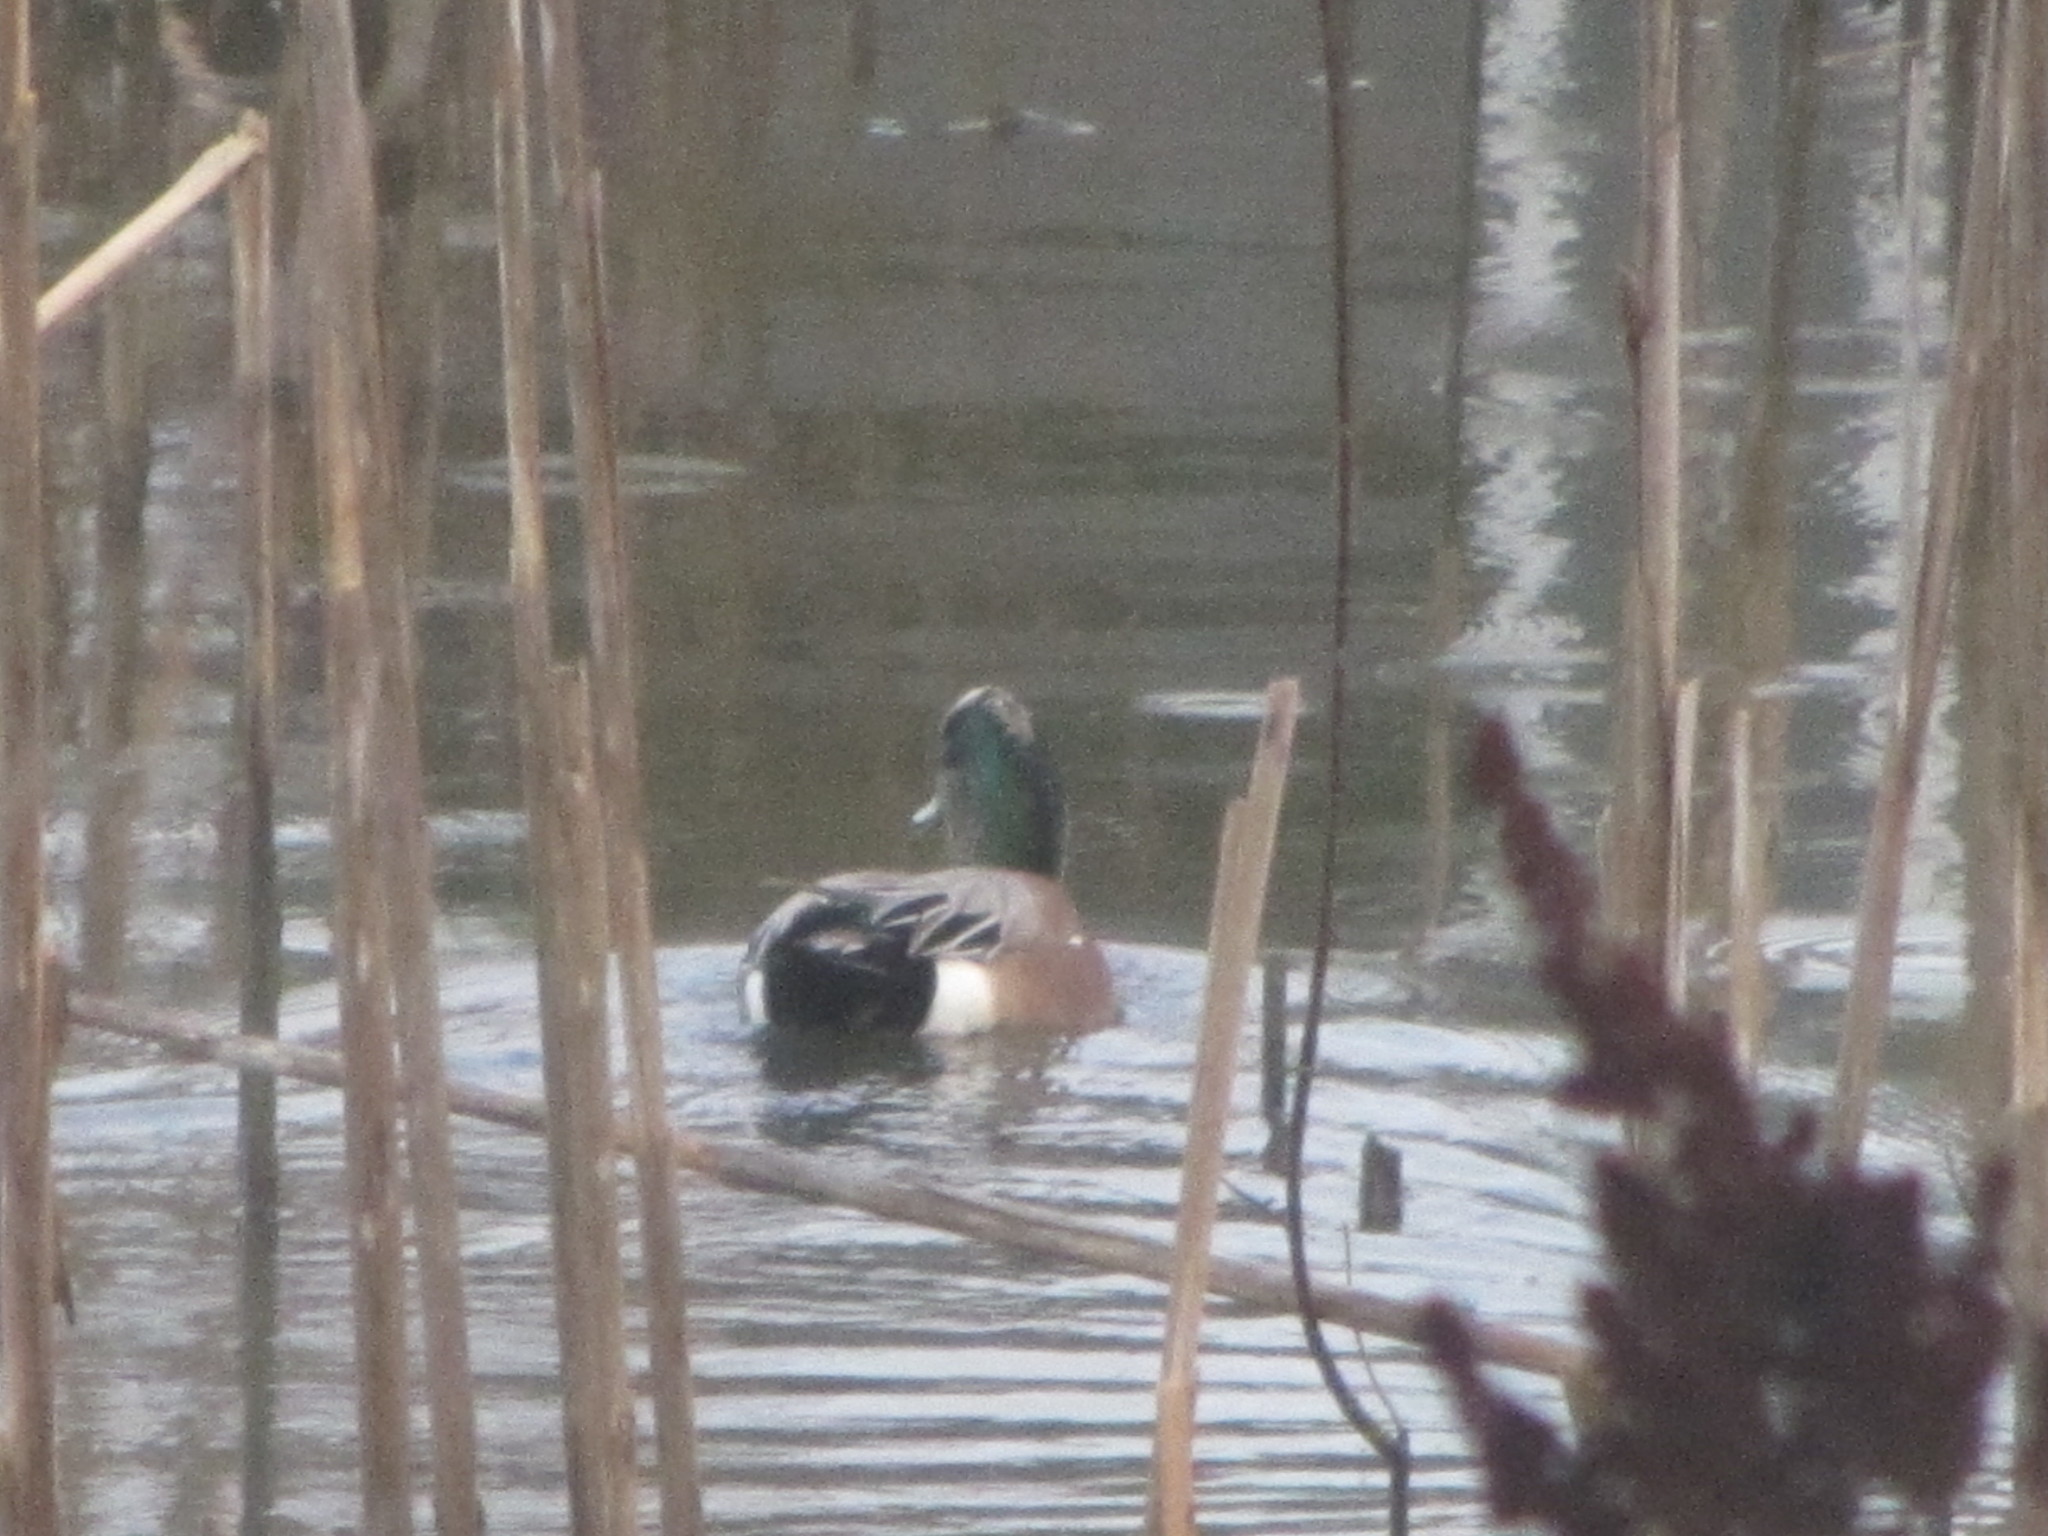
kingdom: Animalia
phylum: Chordata
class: Aves
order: Anseriformes
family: Anatidae
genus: Mareca
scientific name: Mareca americana
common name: American wigeon
